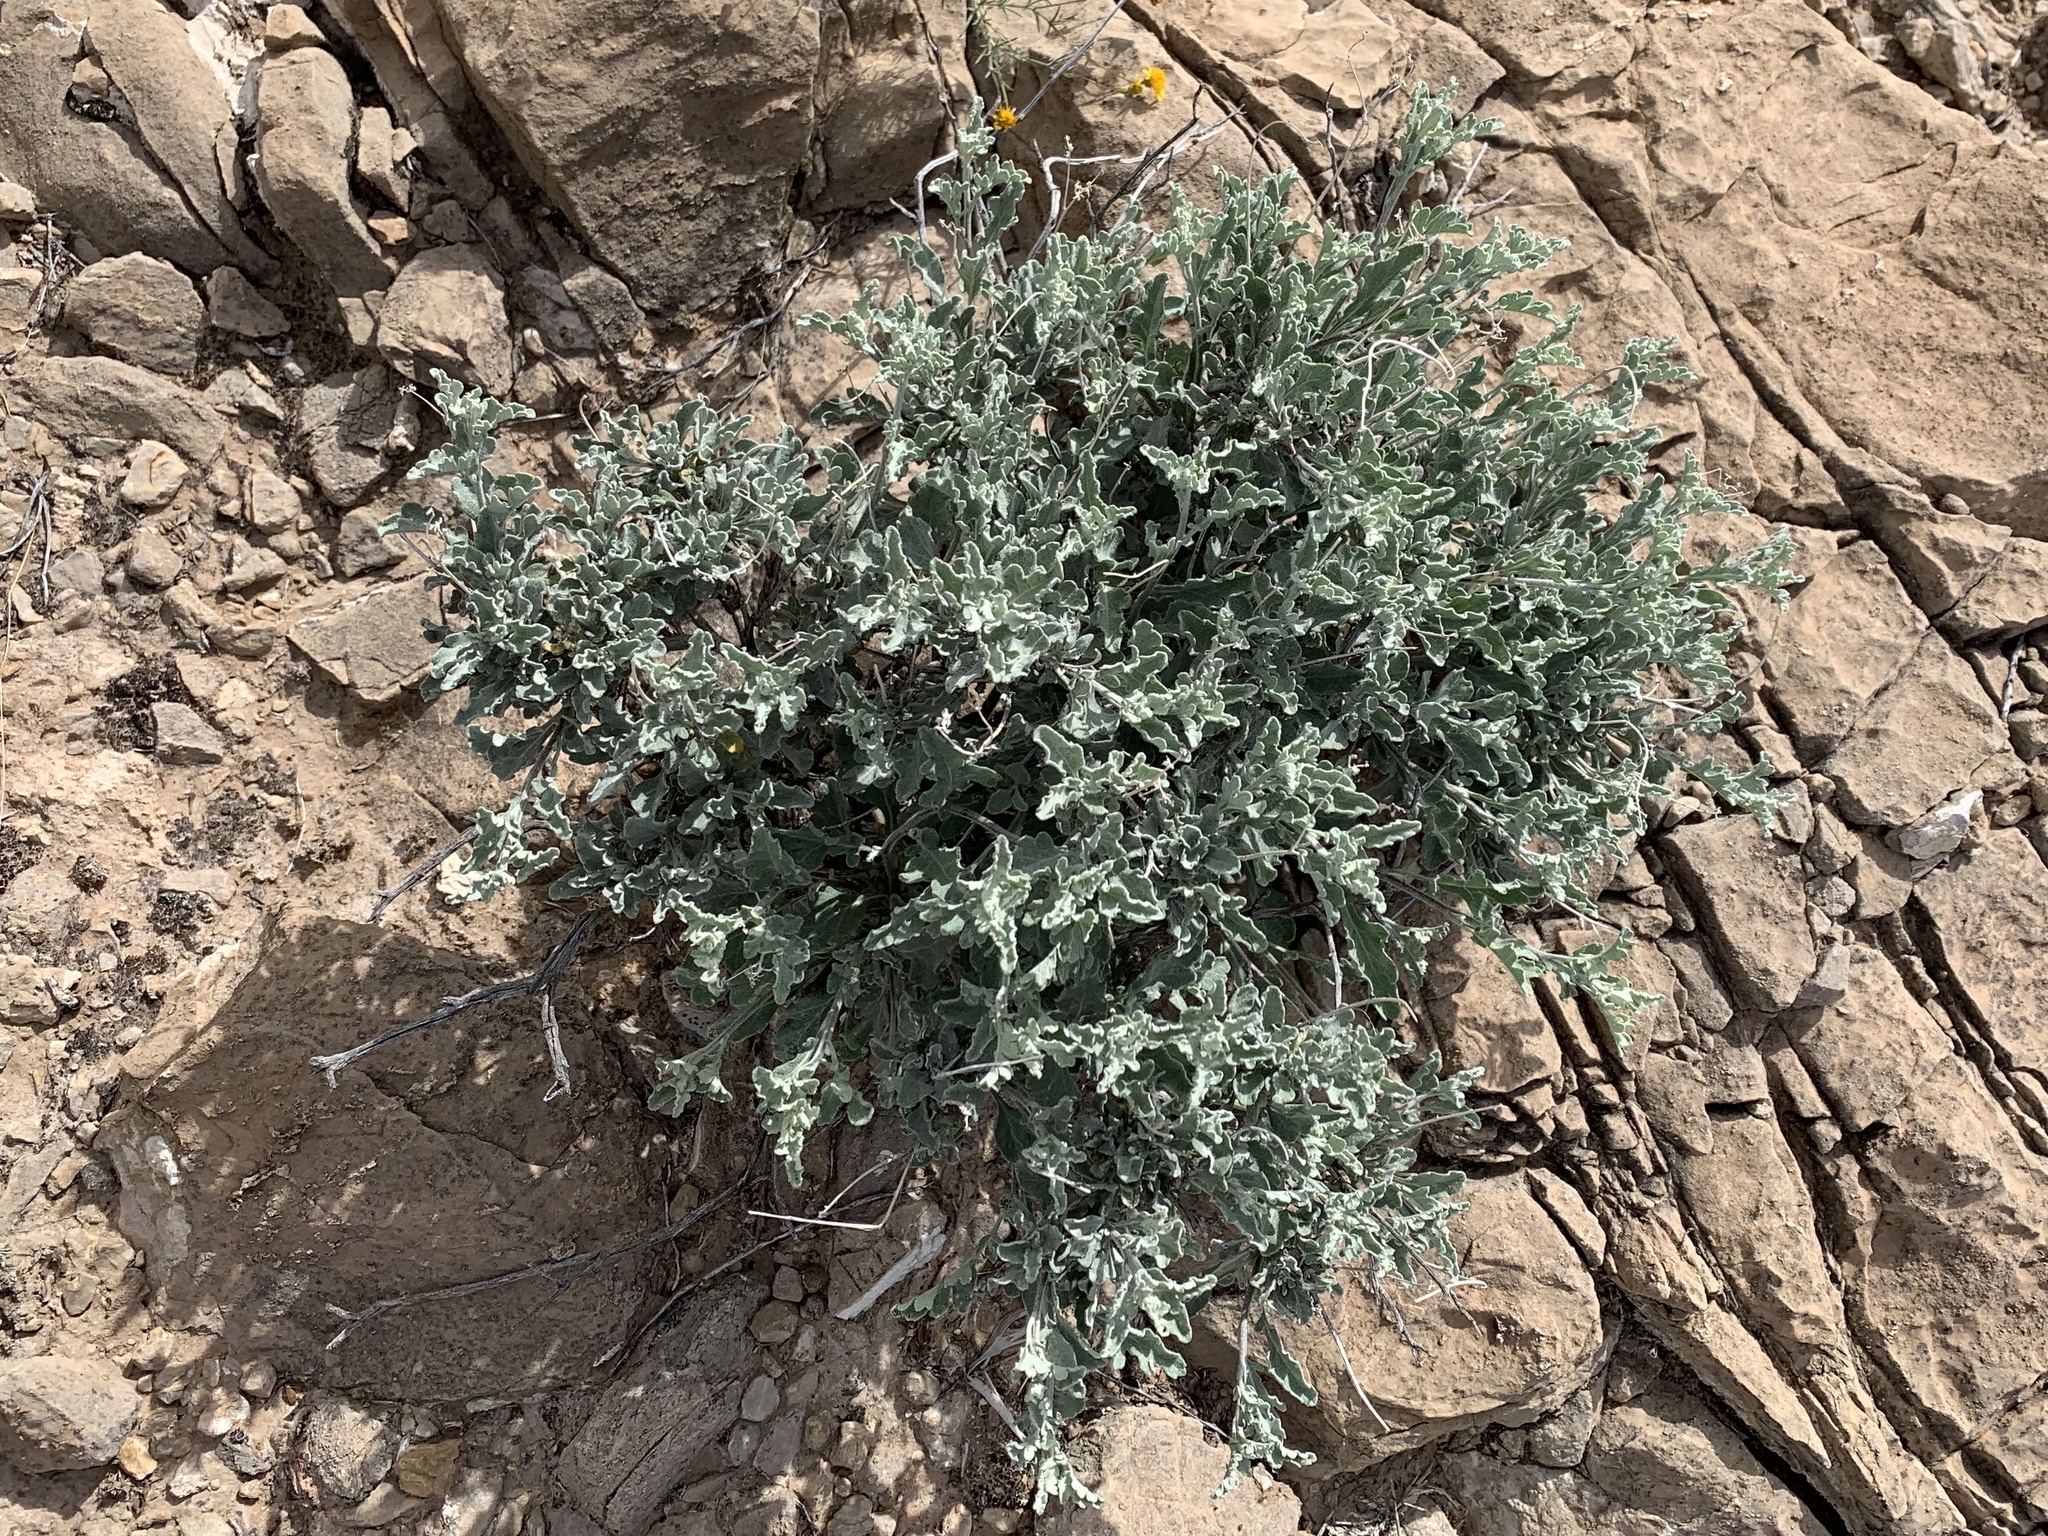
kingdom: Plantae
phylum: Tracheophyta
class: Magnoliopsida
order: Asterales
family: Asteraceae
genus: Parthenium
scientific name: Parthenium incanum
